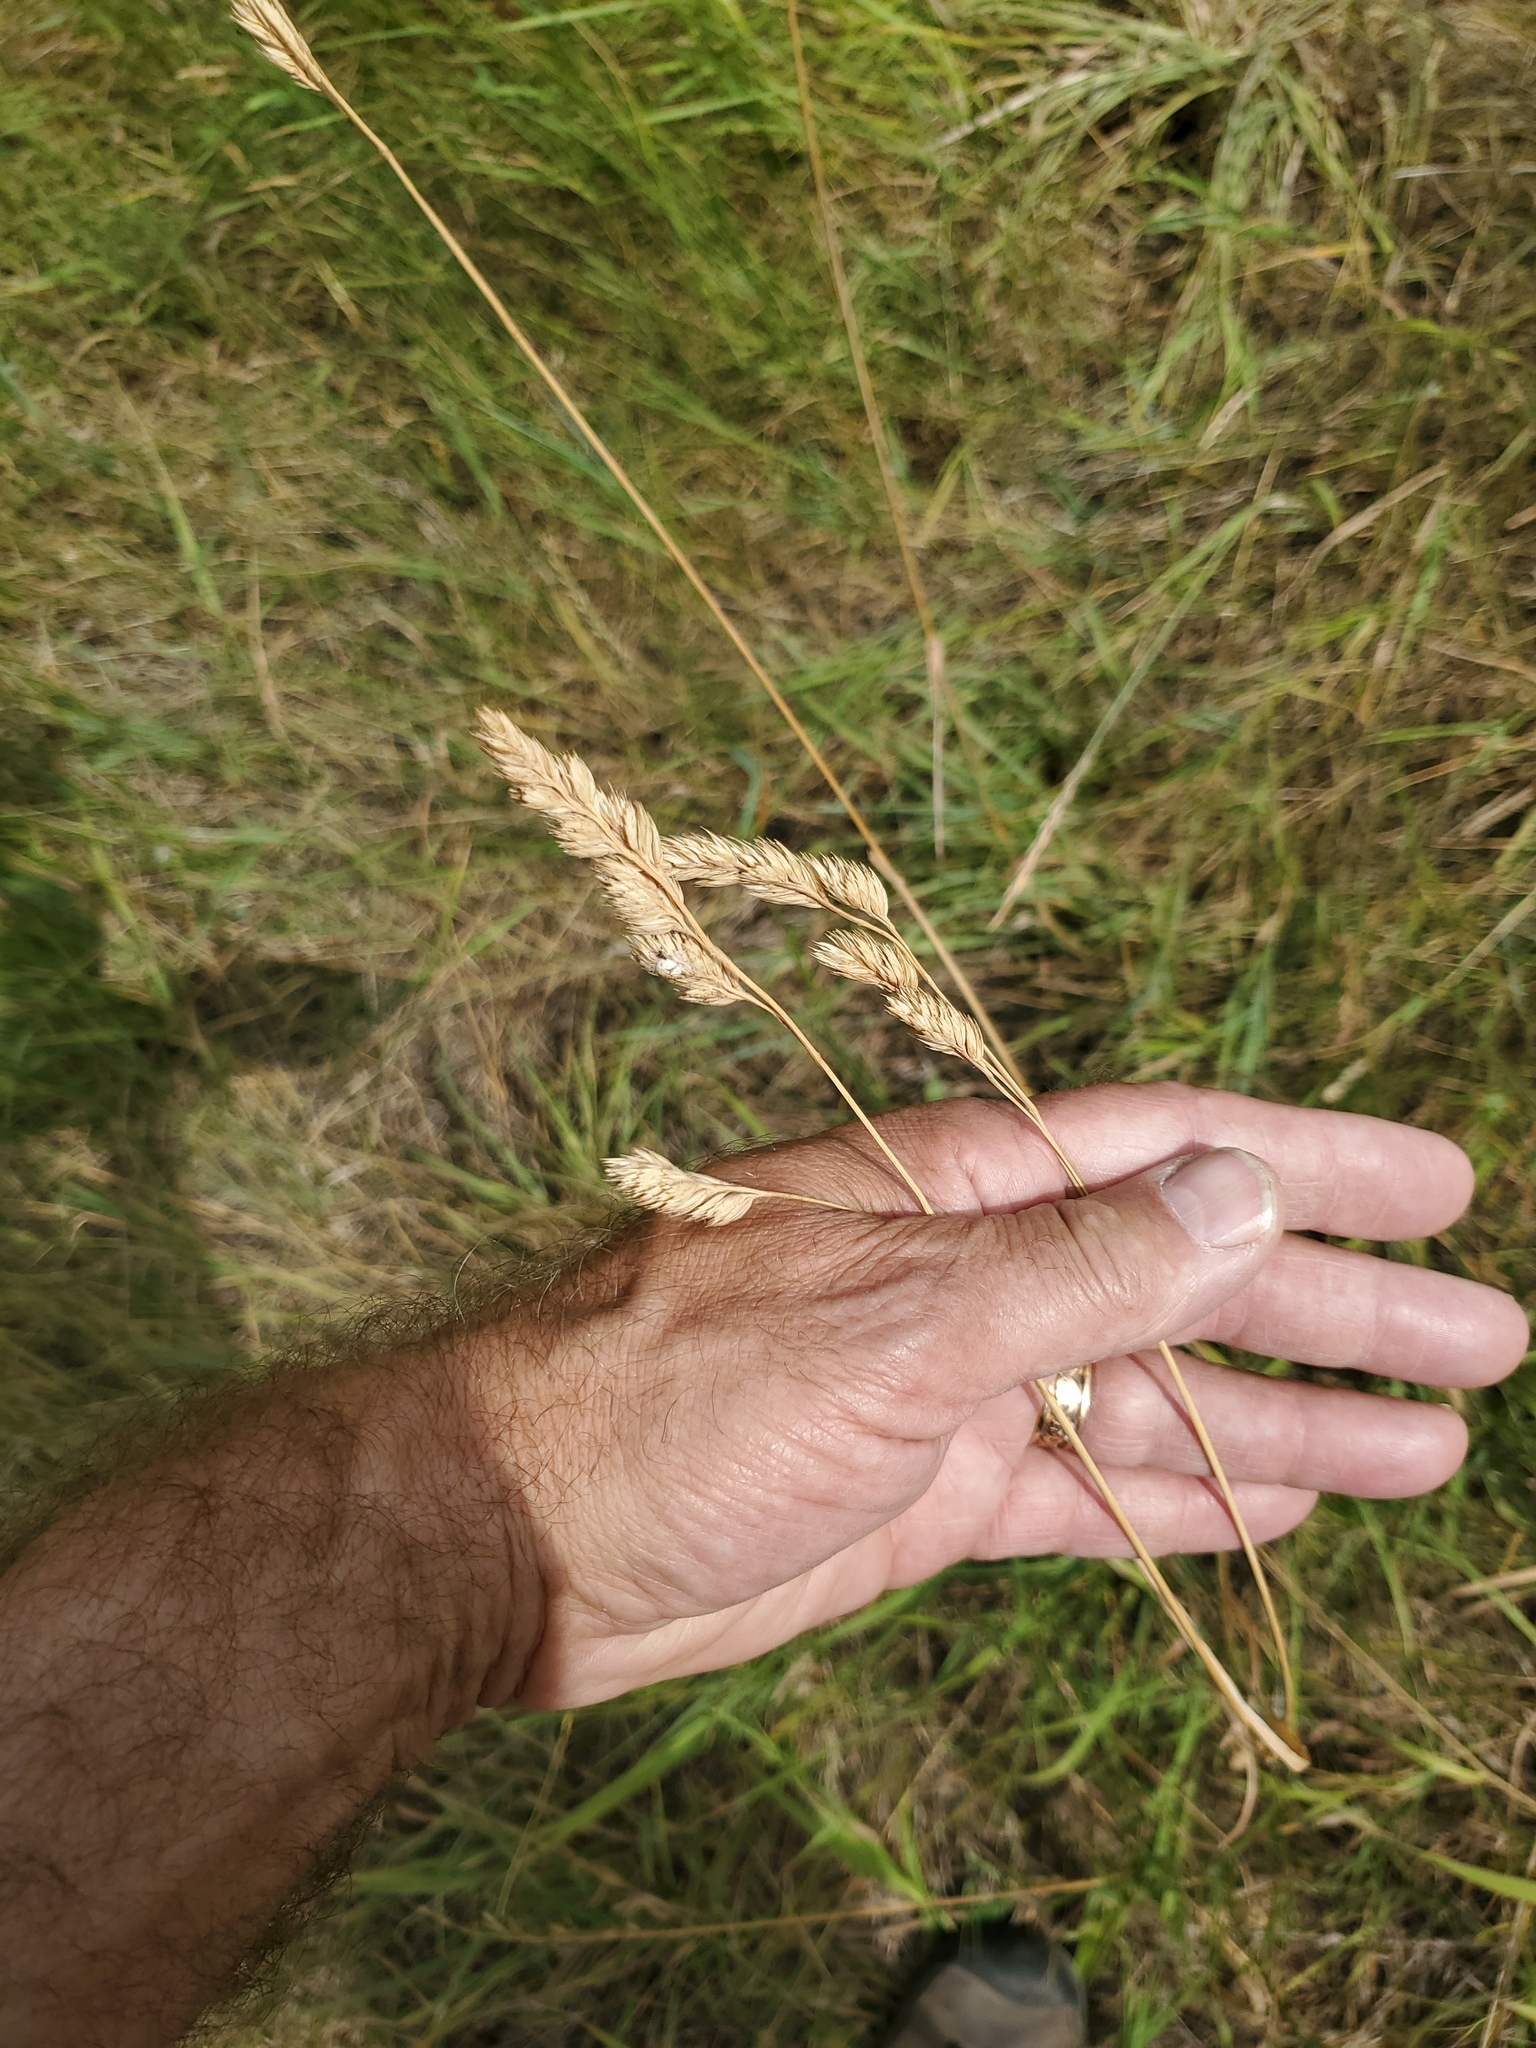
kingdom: Plantae
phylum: Tracheophyta
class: Liliopsida
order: Poales
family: Poaceae
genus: Dactylis
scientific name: Dactylis glomerata
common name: Orchardgrass
